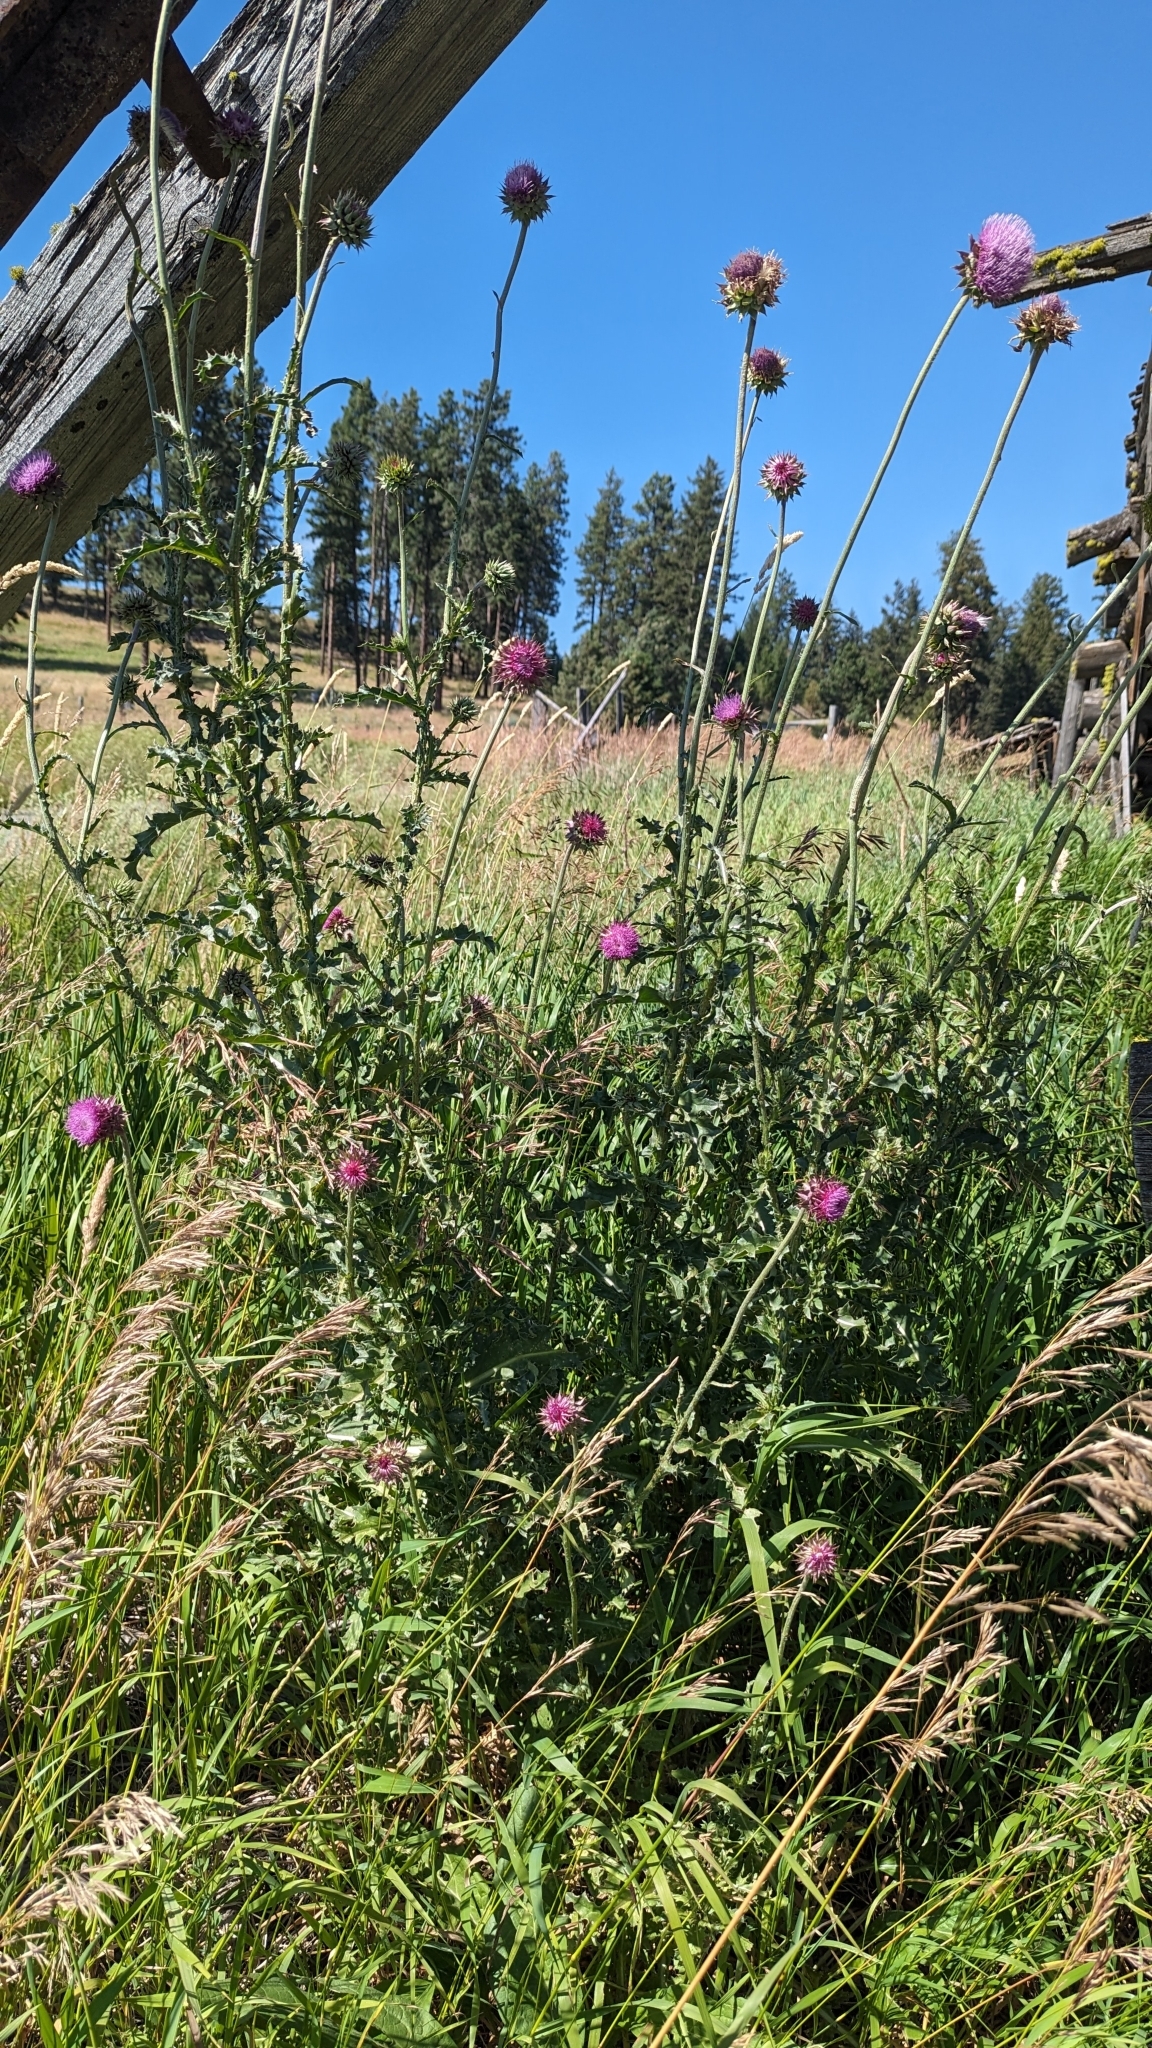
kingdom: Plantae
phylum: Tracheophyta
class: Magnoliopsida
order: Asterales
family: Asteraceae
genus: Carduus
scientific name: Carduus nutans
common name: Musk thistle
